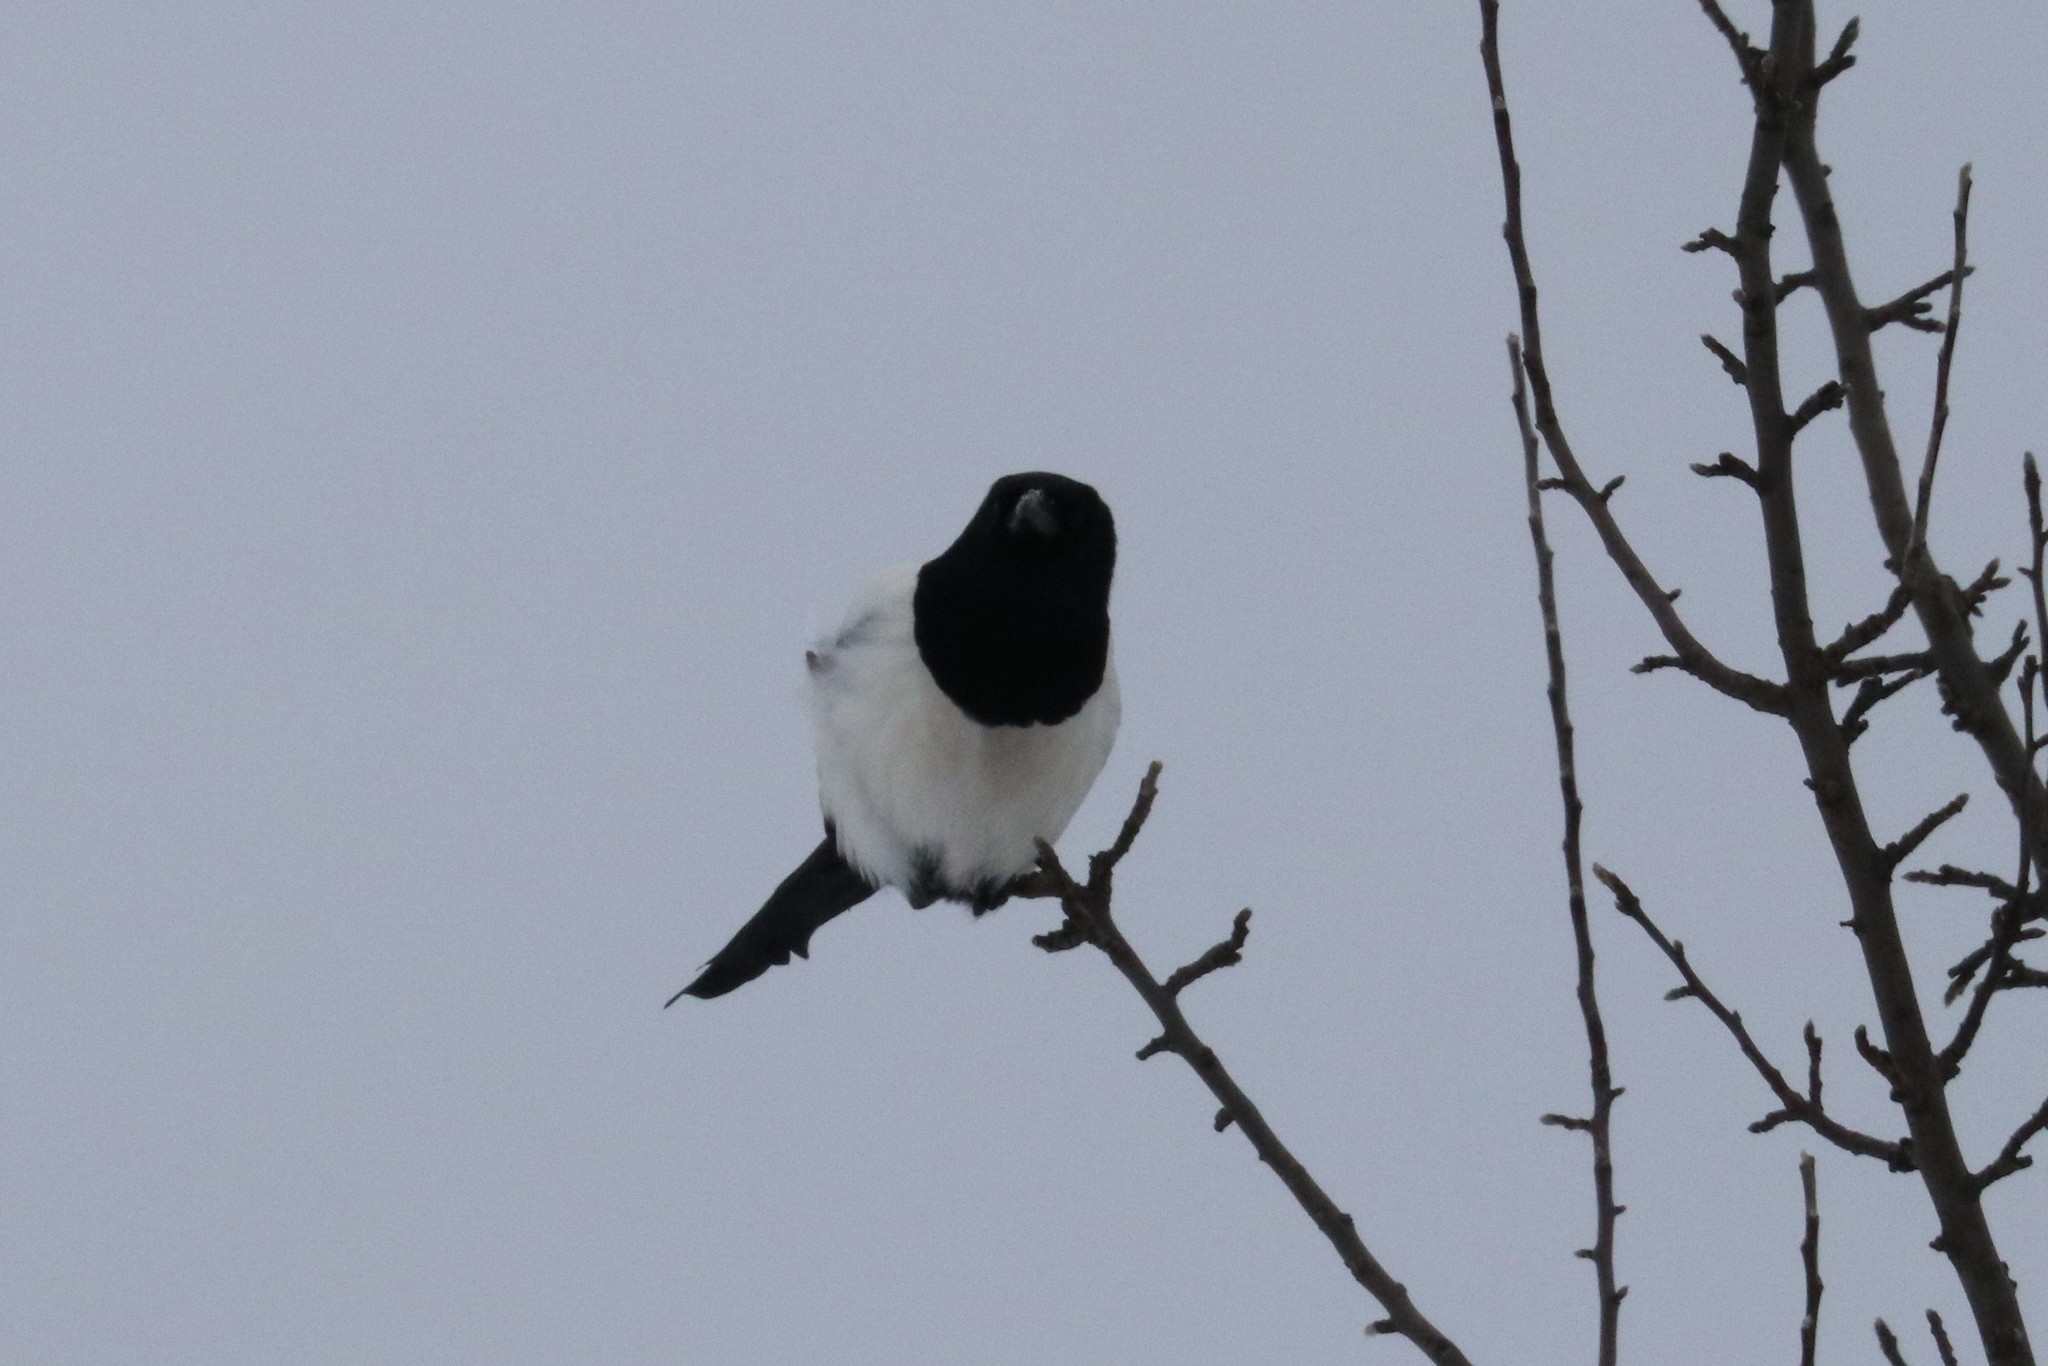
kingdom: Animalia
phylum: Chordata
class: Aves
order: Passeriformes
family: Corvidae
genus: Pica
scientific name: Pica pica
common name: Eurasian magpie
